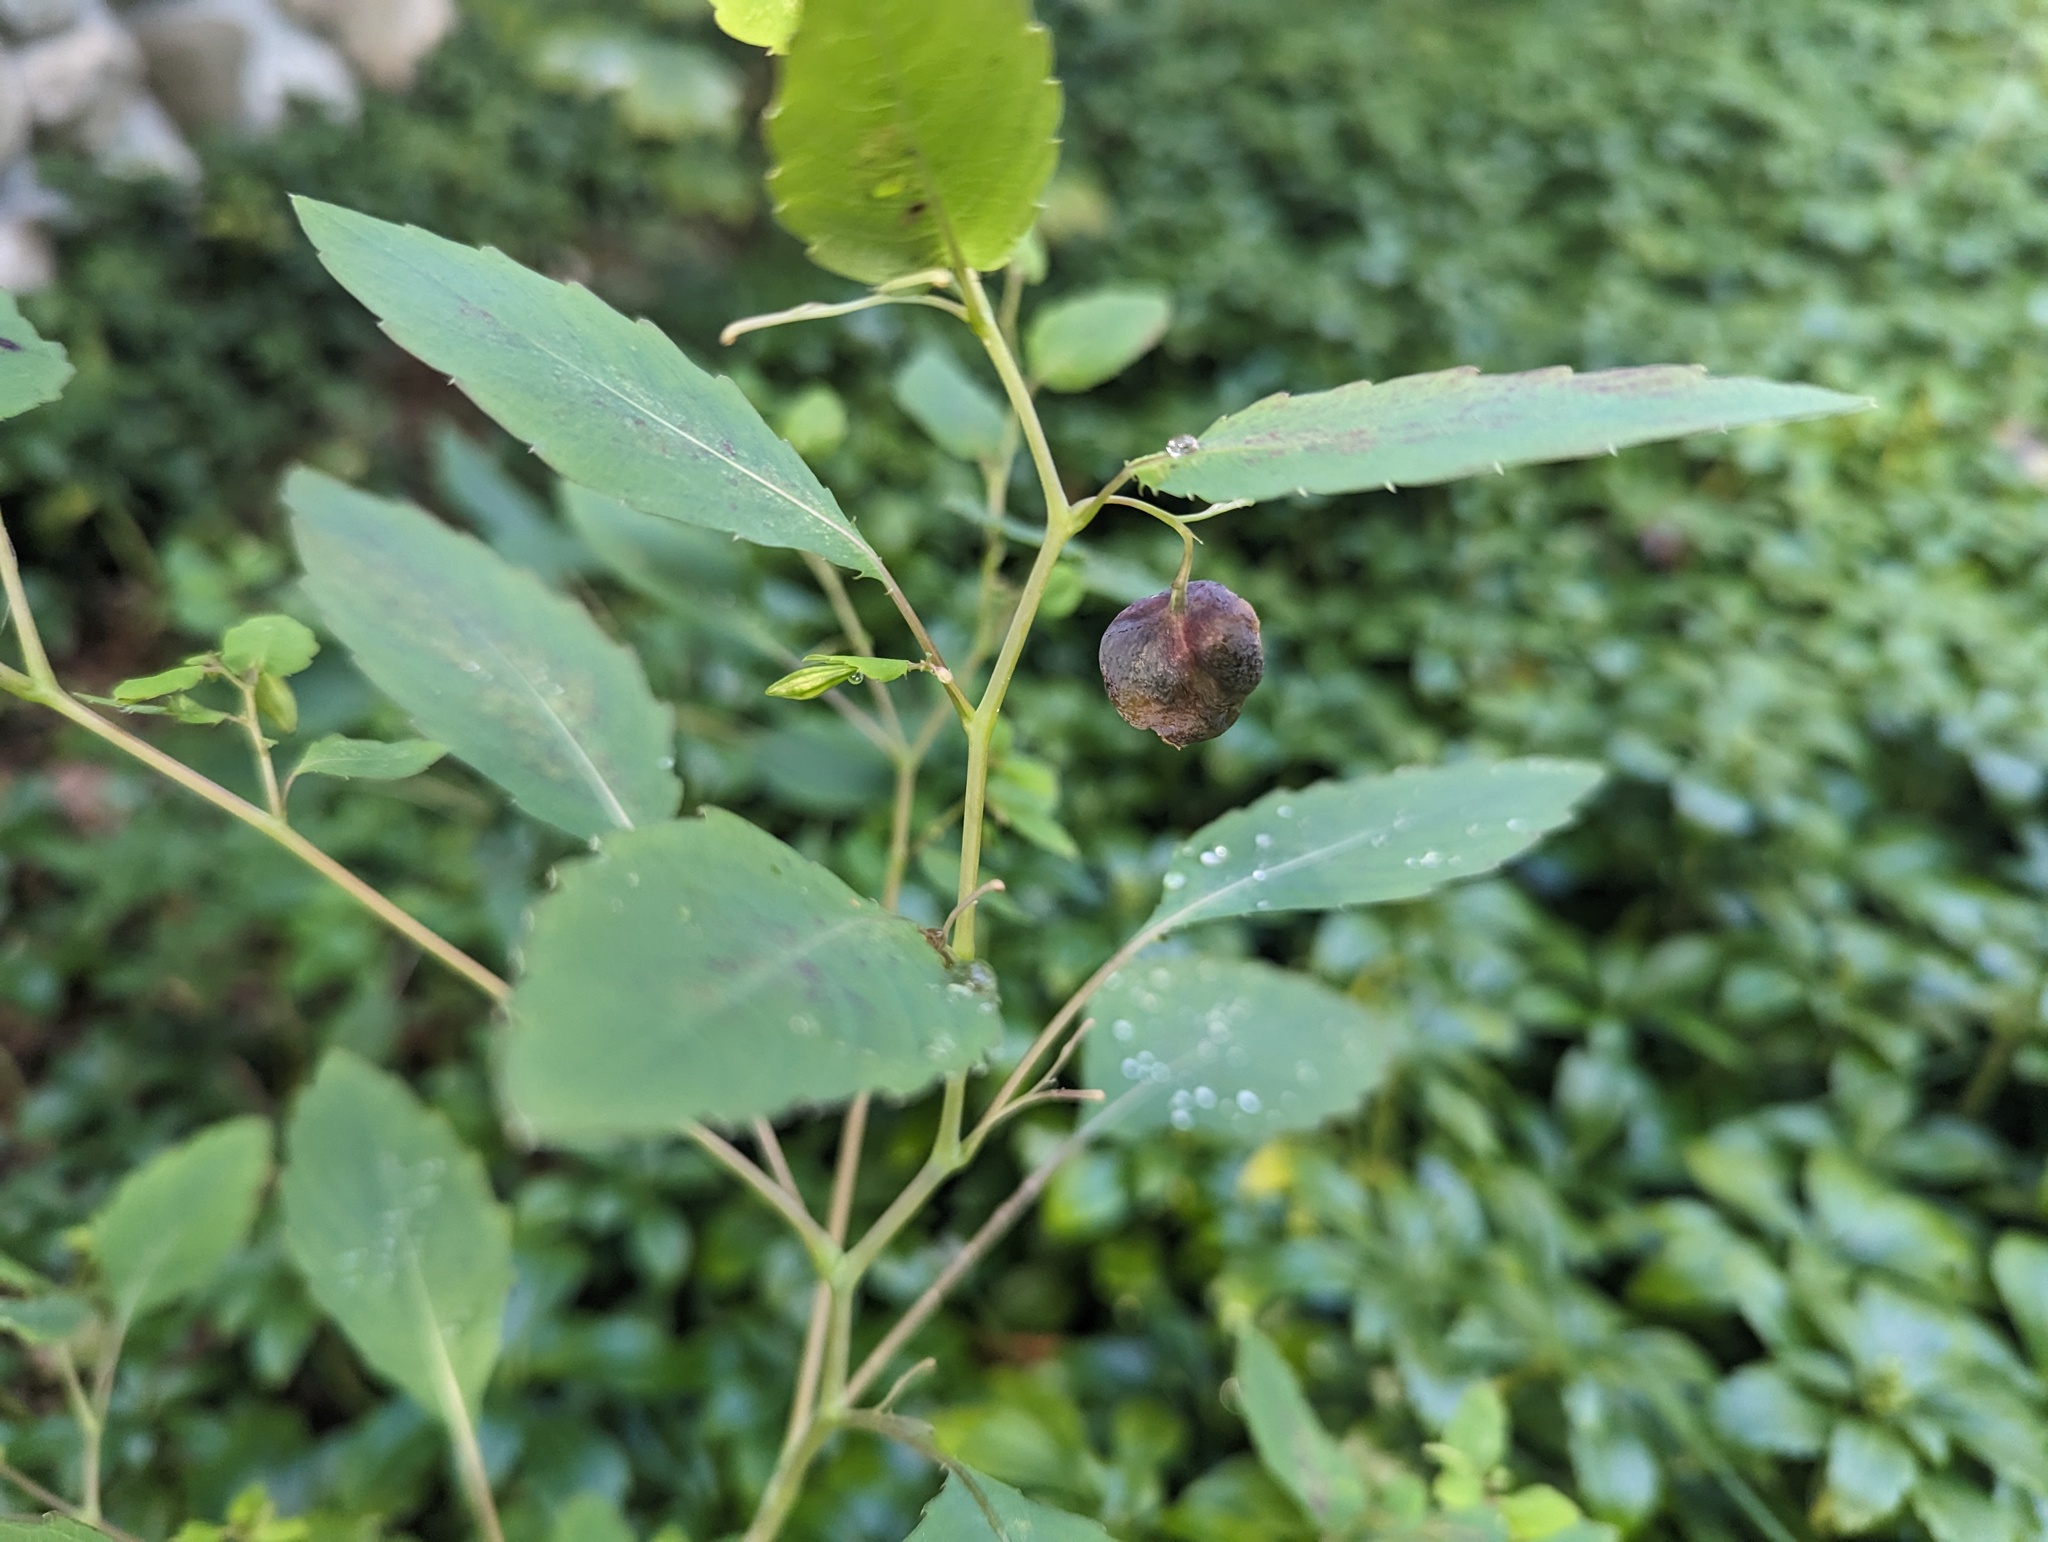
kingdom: Animalia
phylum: Arthropoda
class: Insecta
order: Diptera
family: Cecidomyiidae
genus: Schizomyia
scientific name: Schizomyia impatientis
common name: Jewelweed gall midge
